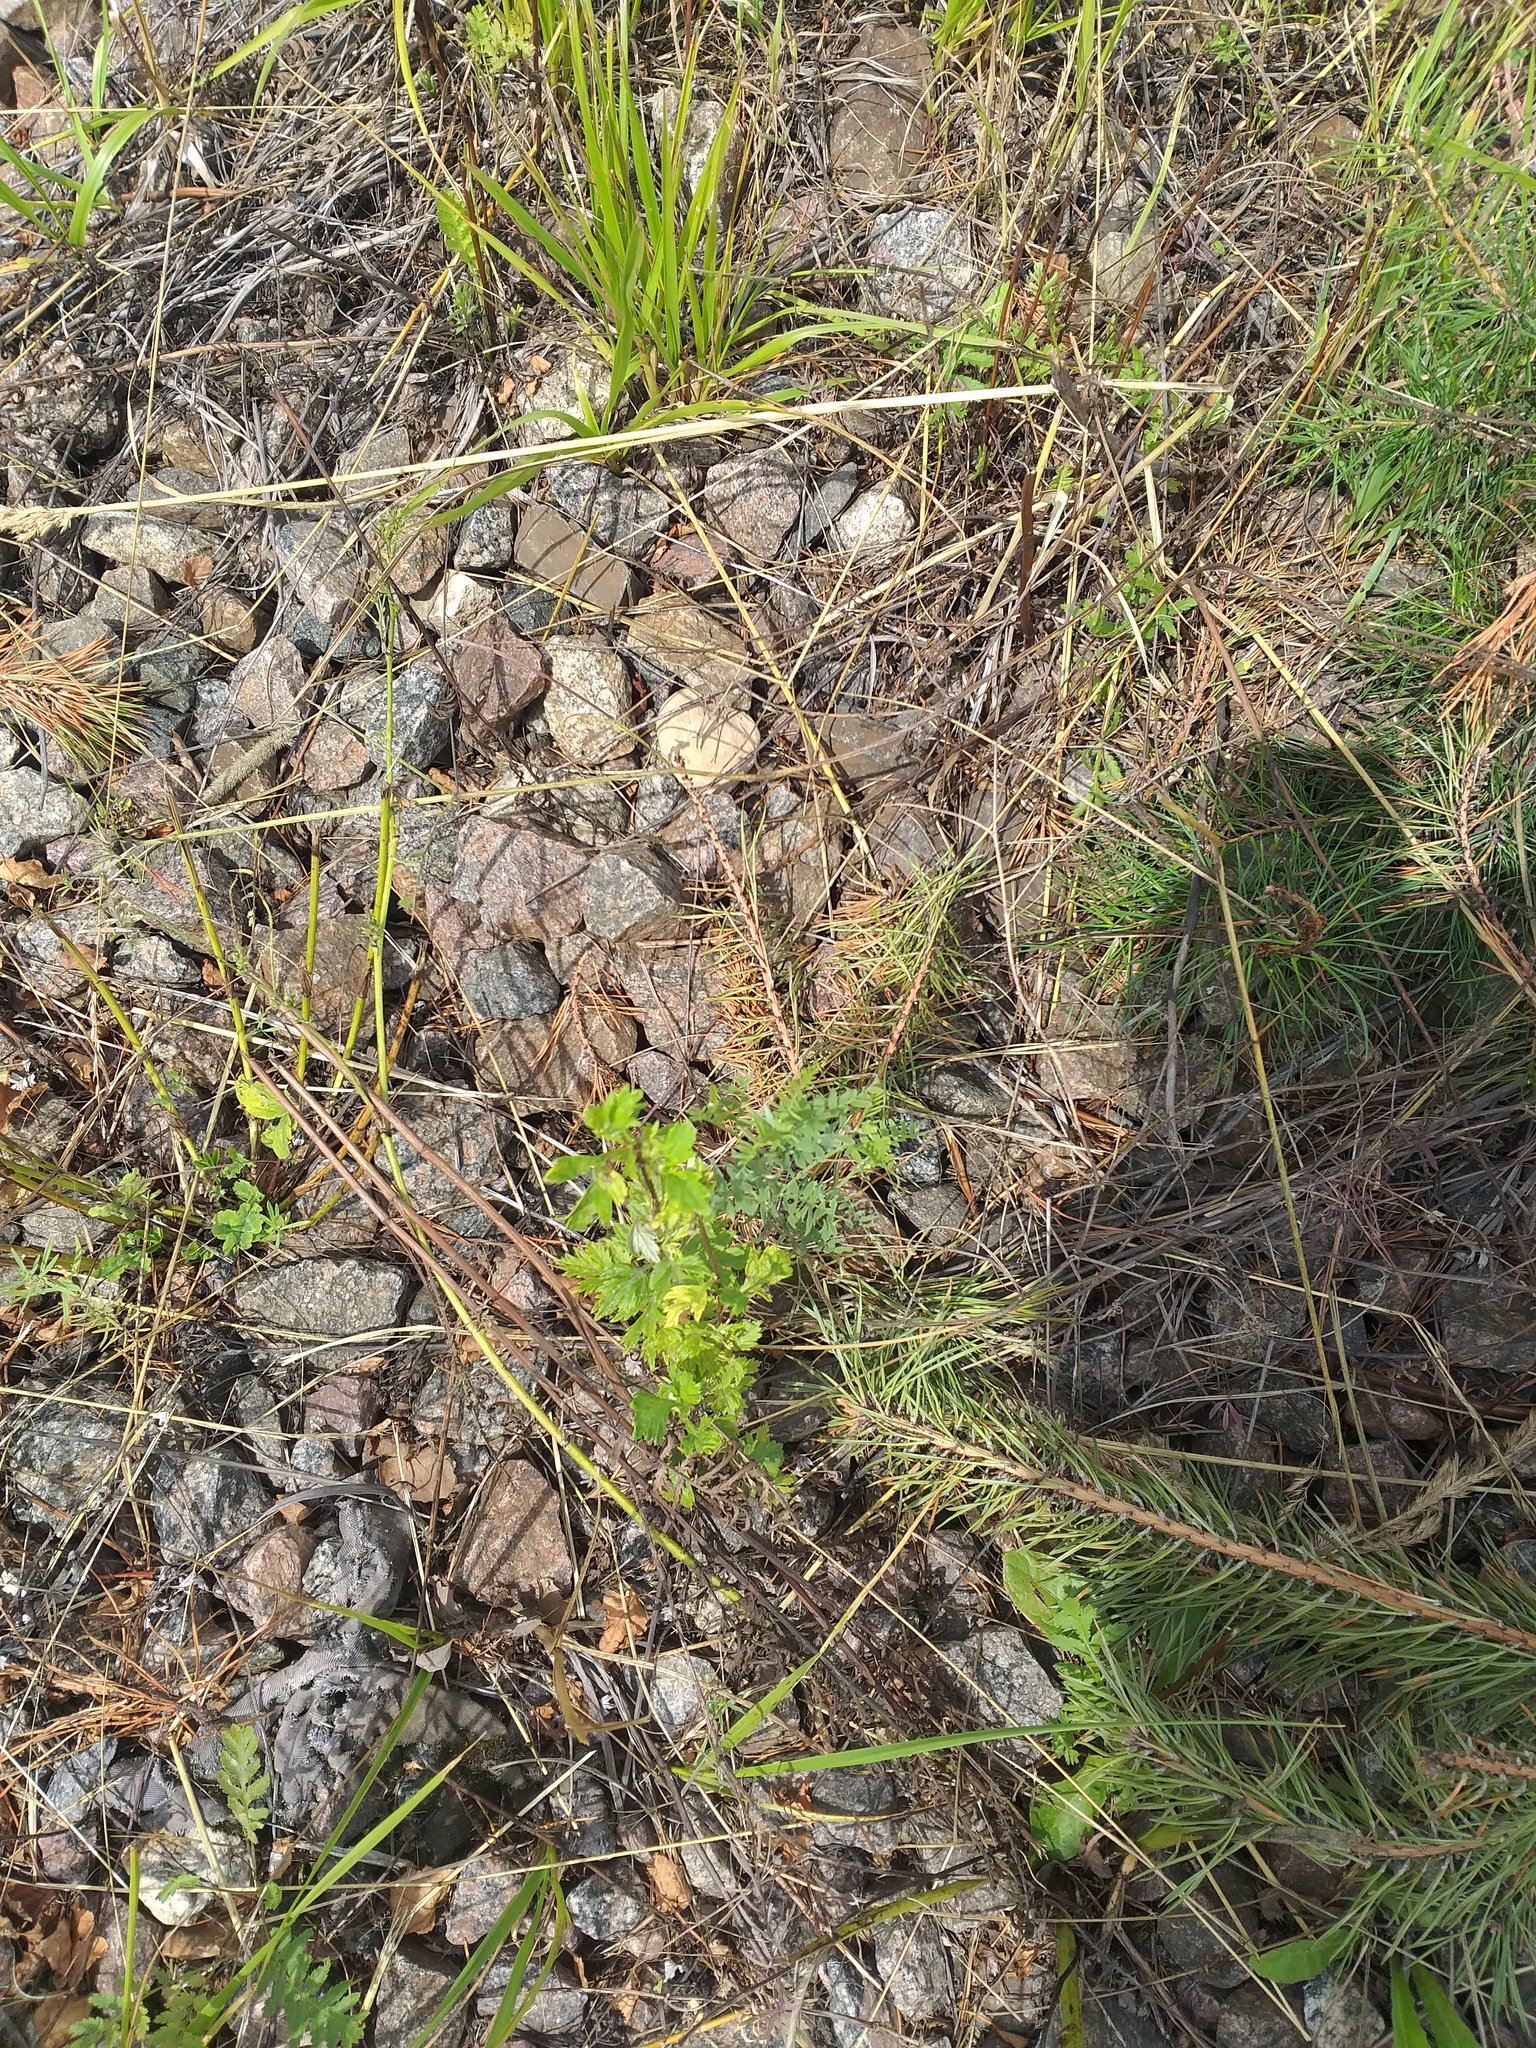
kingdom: Plantae
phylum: Tracheophyta
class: Magnoliopsida
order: Asterales
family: Asteraceae
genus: Artemisia
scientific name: Artemisia vulgaris
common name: Mugwort
